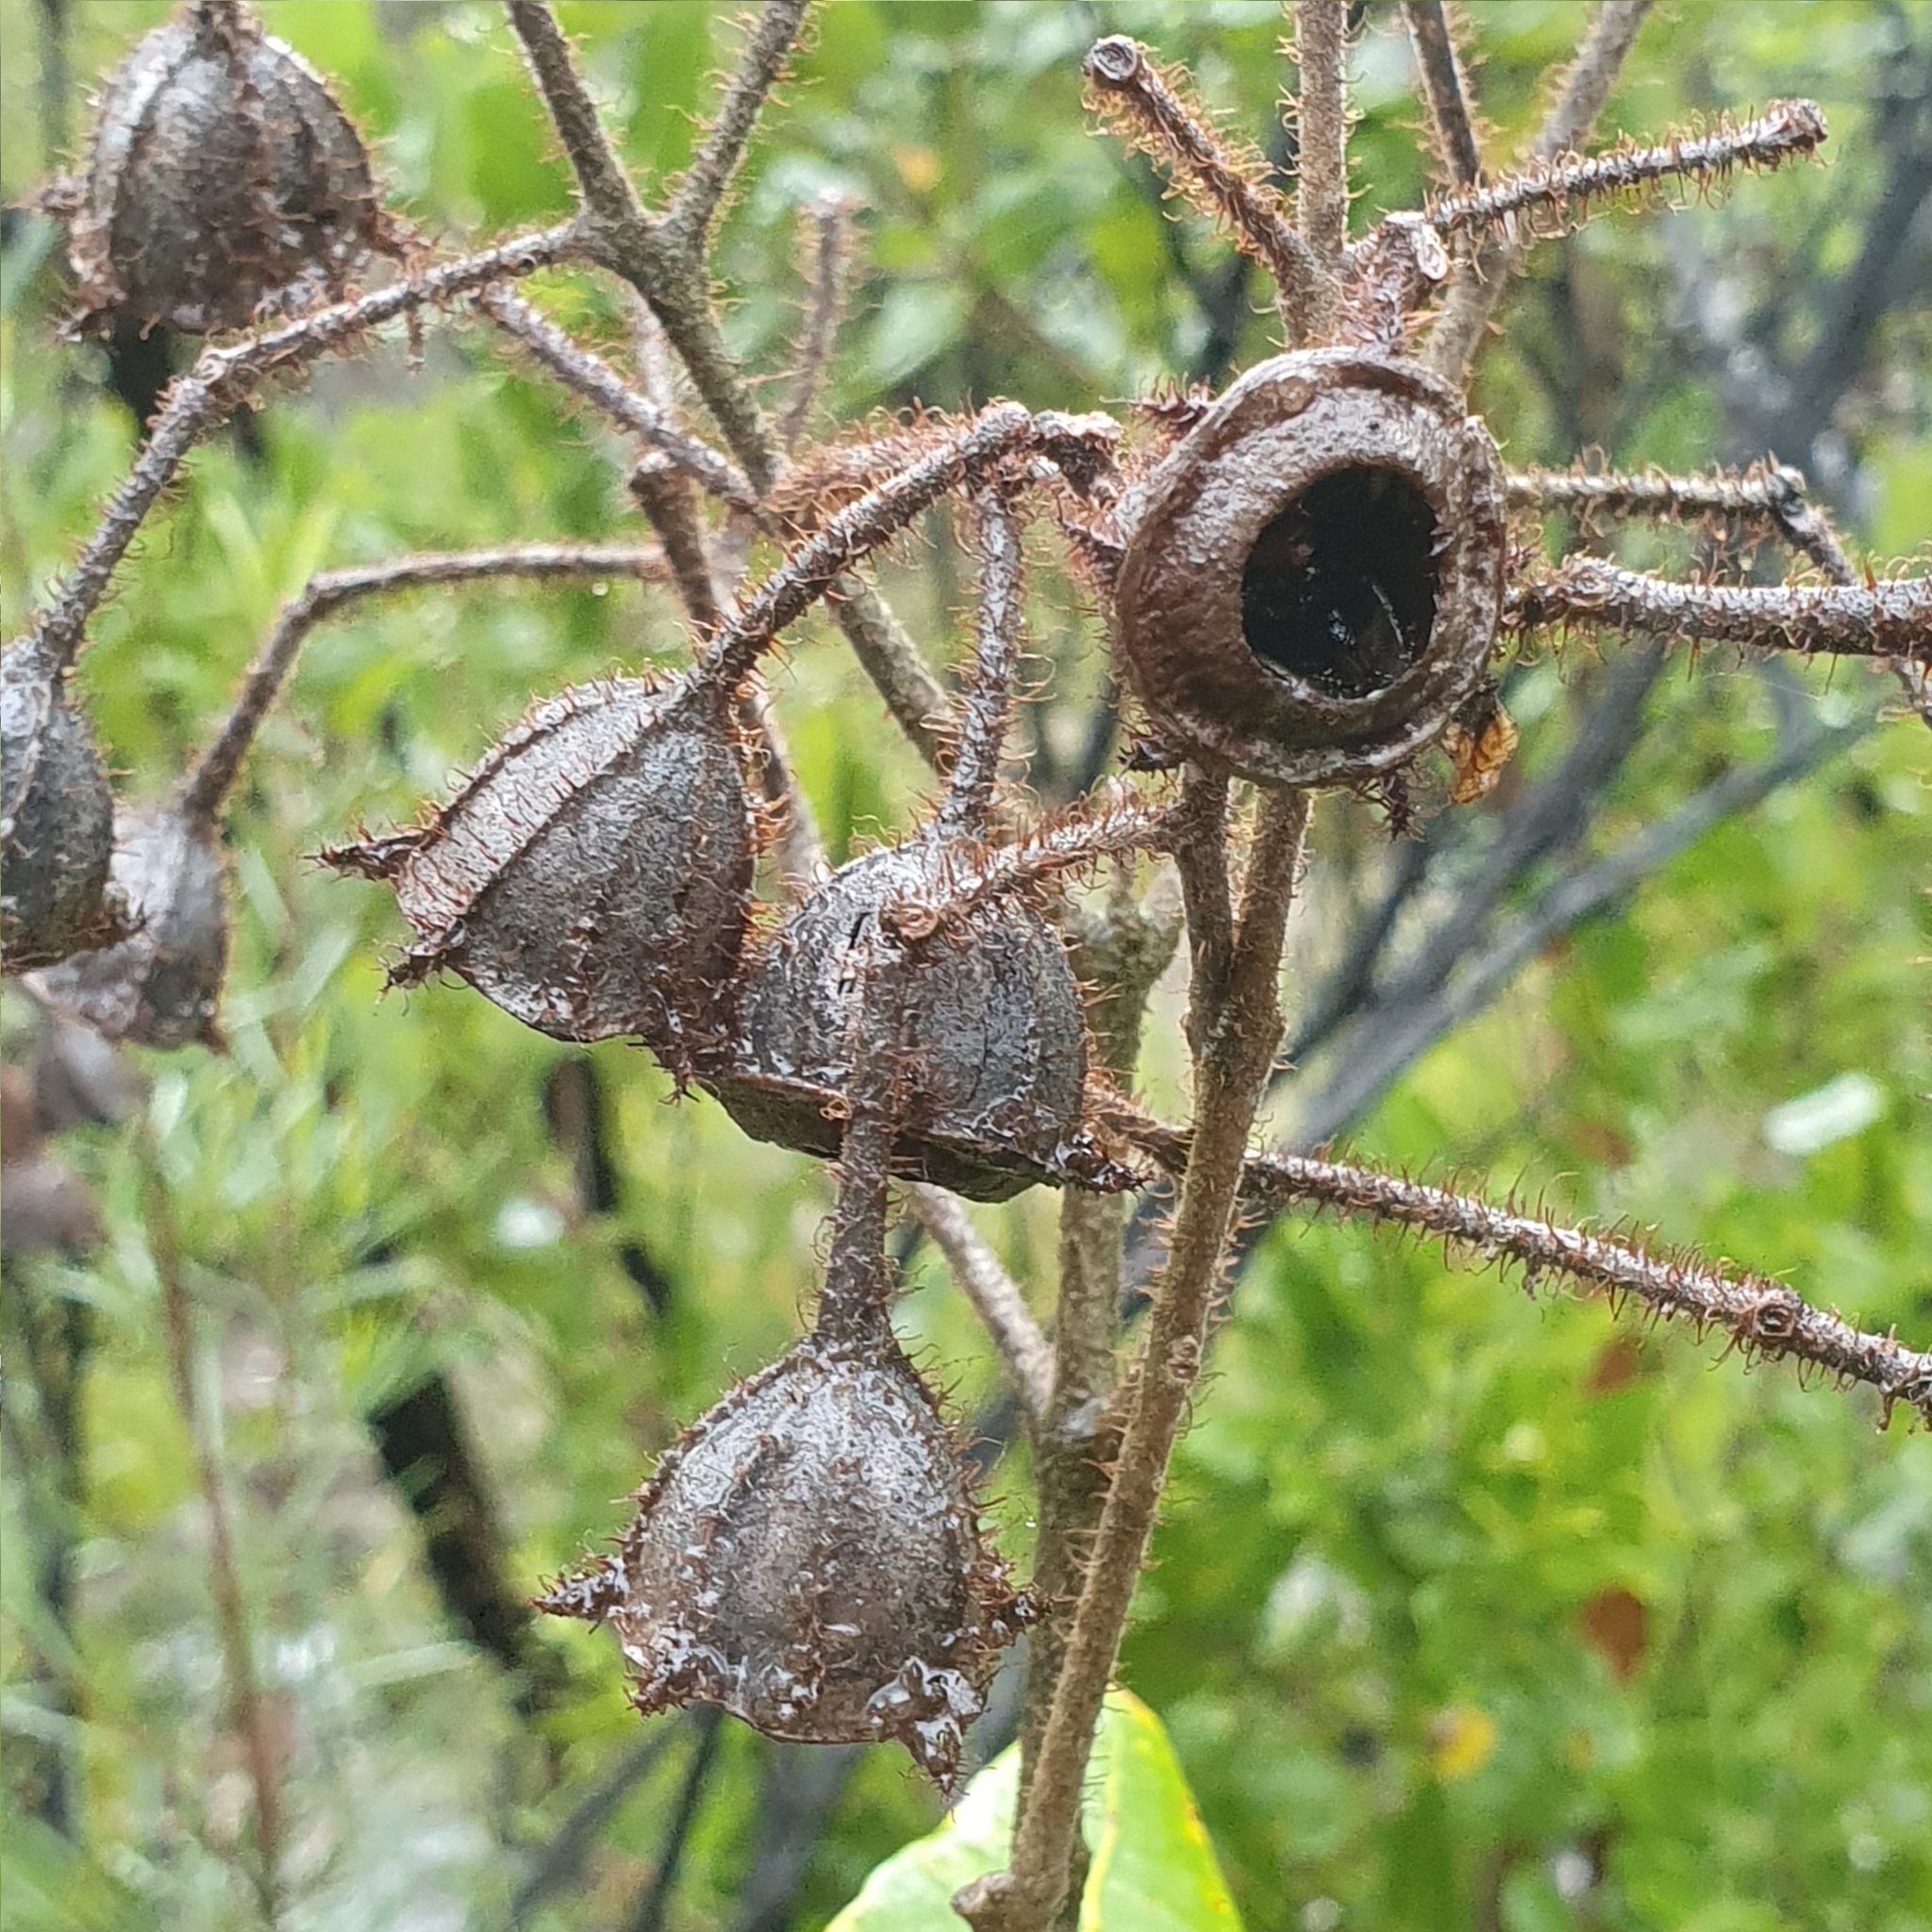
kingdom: Plantae
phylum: Tracheophyta
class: Magnoliopsida
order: Myrtales
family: Myrtaceae
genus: Angophora
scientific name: Angophora hispida
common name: Dwarf-apple
